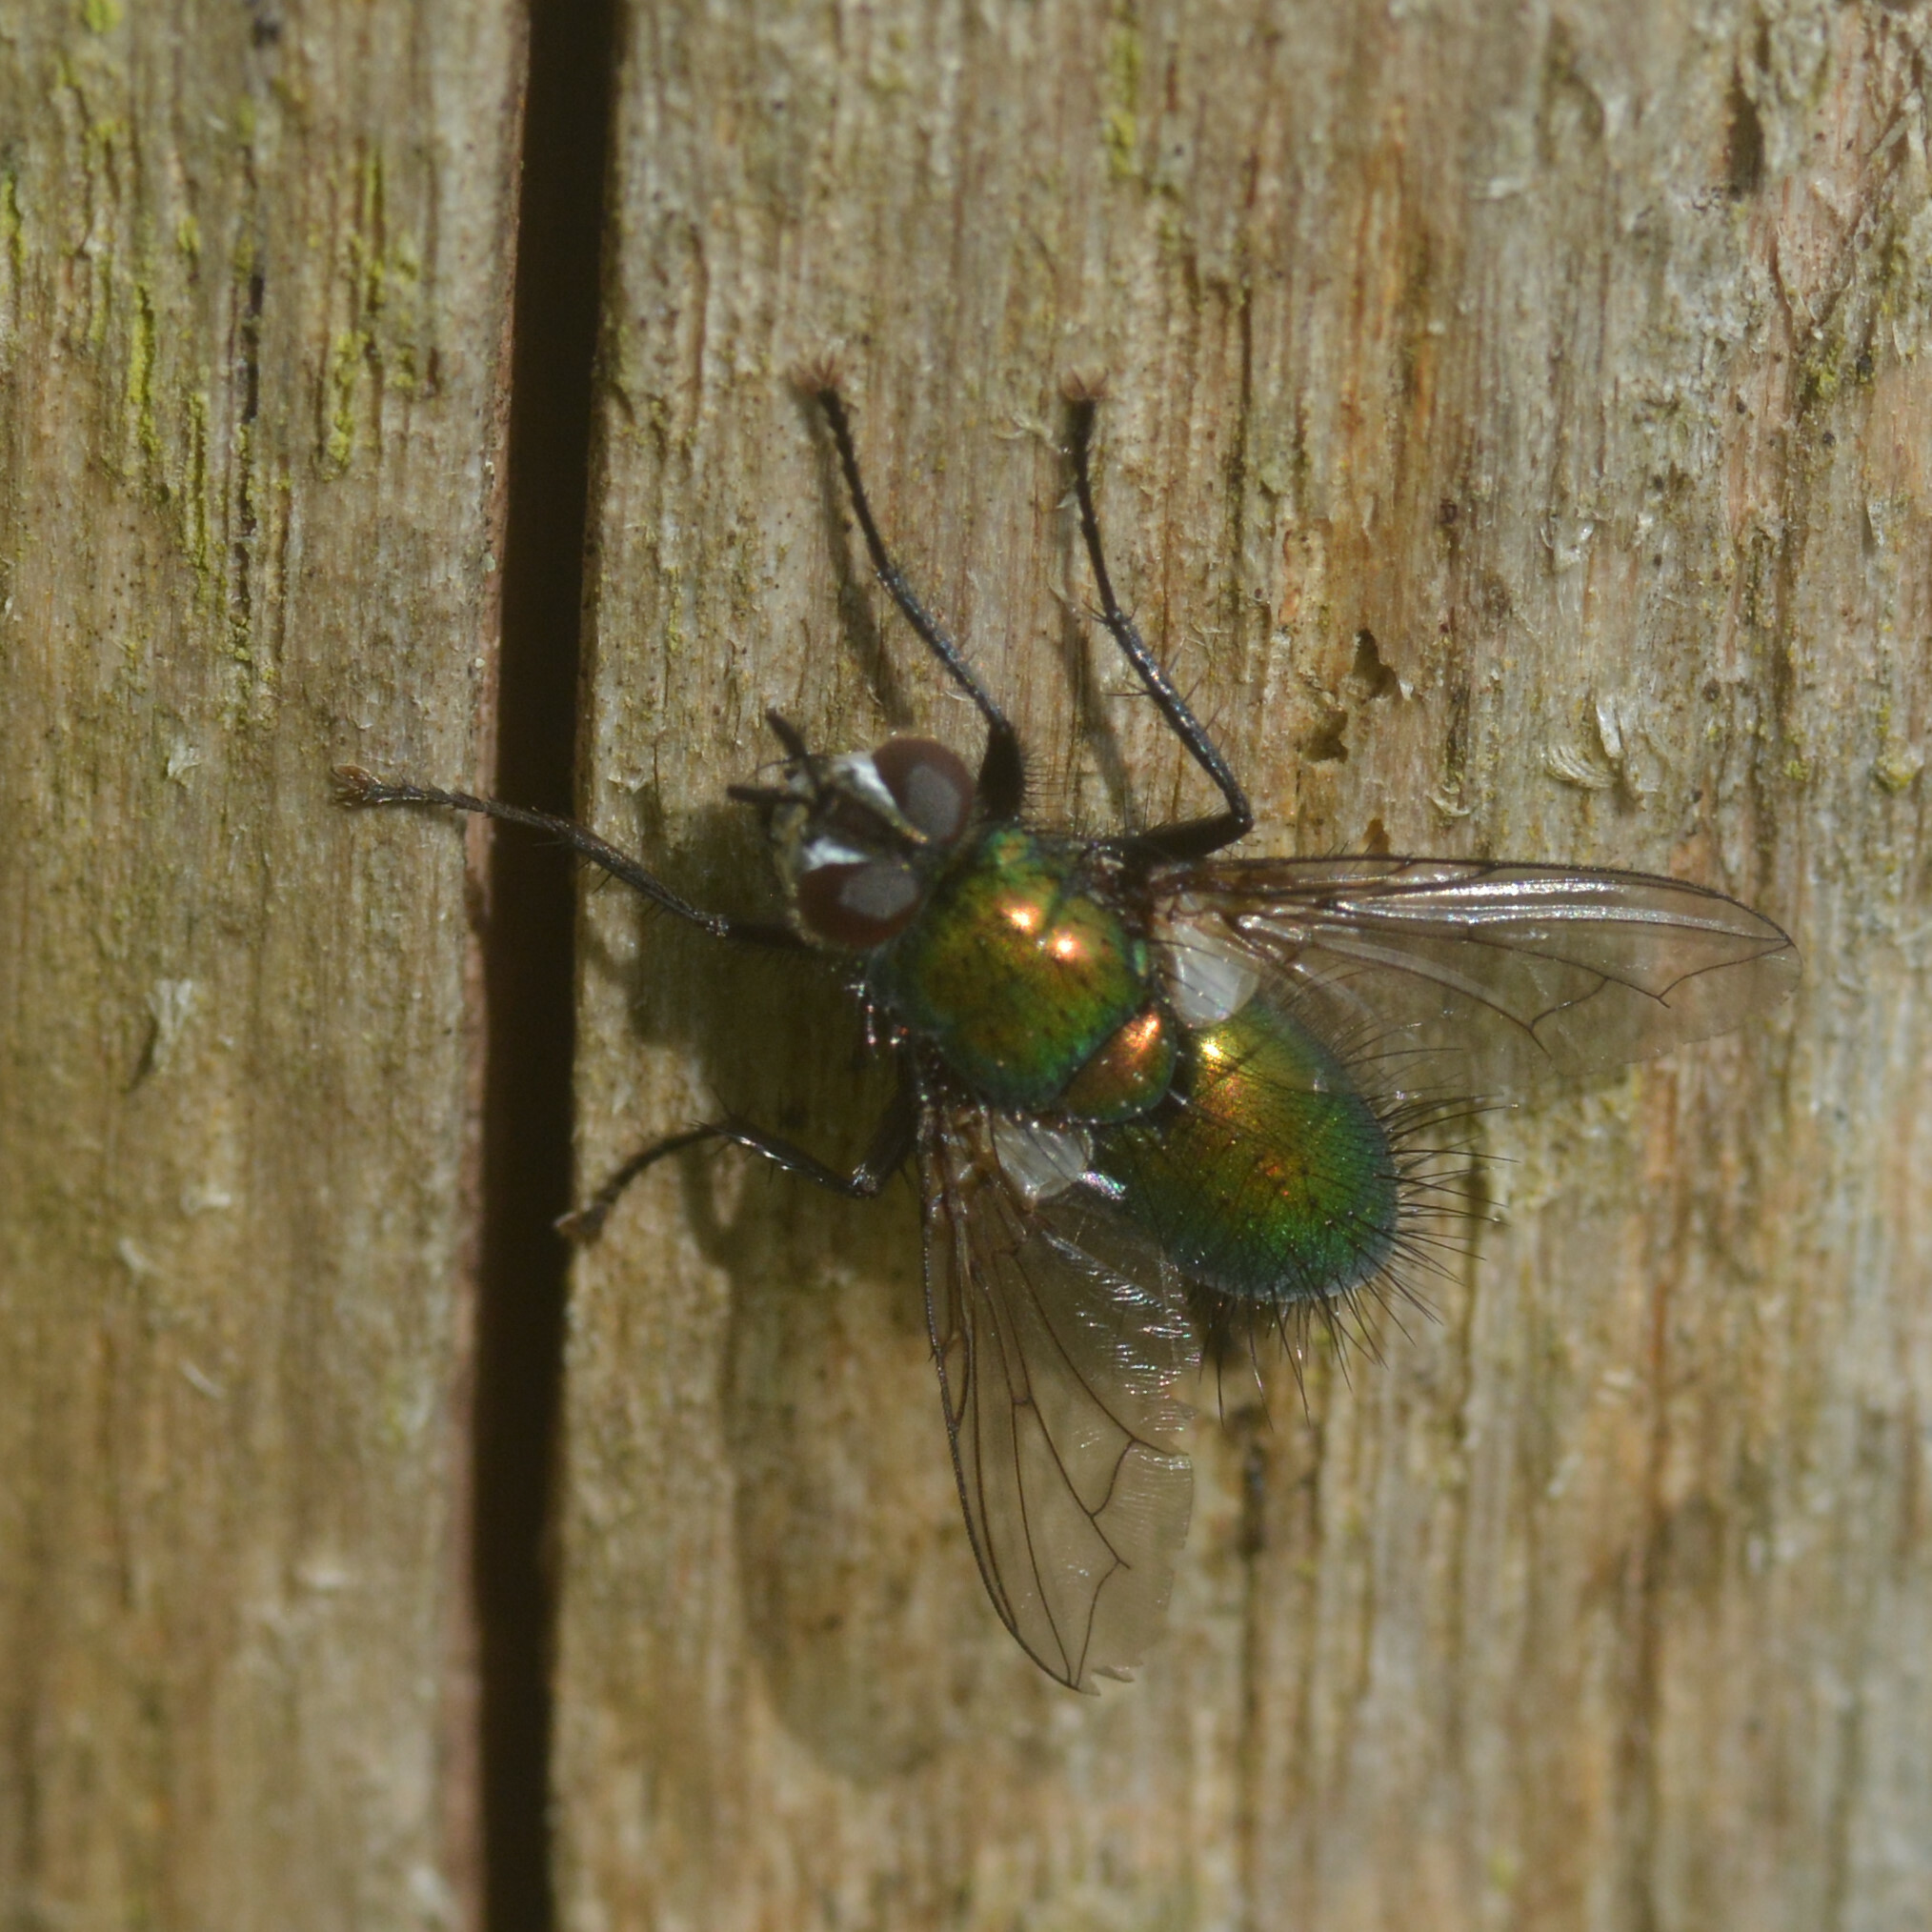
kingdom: Animalia
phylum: Arthropoda
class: Insecta
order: Diptera
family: Tachinidae
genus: Gymnocheta
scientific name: Gymnocheta viridis
